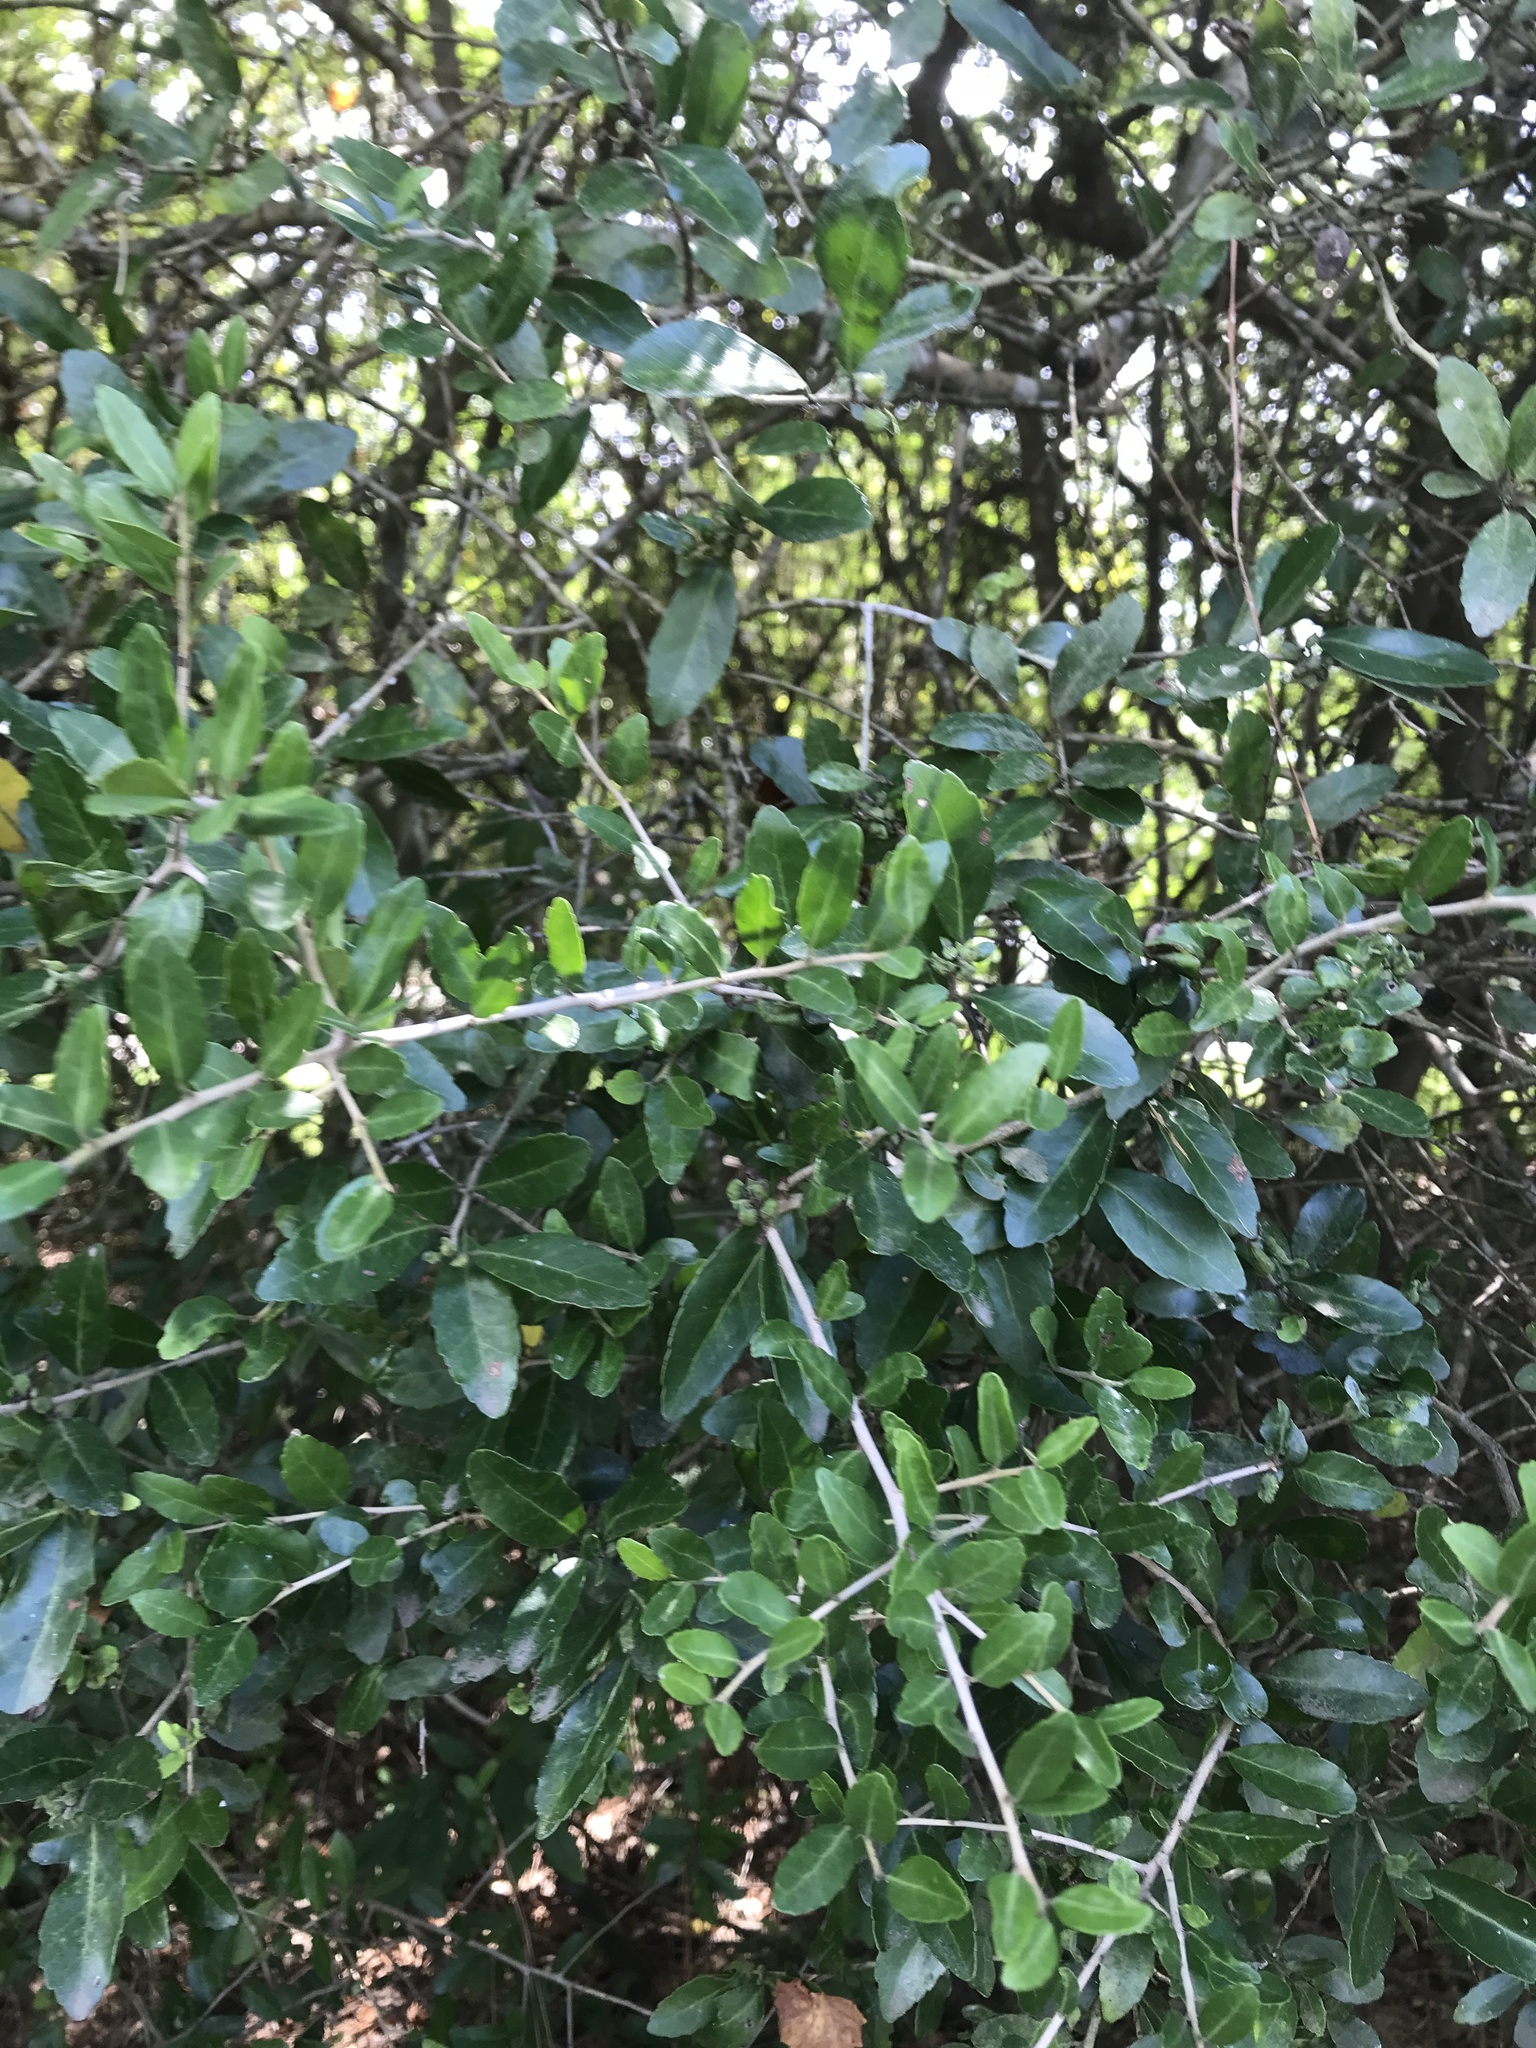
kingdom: Plantae
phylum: Tracheophyta
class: Magnoliopsida
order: Aquifoliales
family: Aquifoliaceae
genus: Ilex
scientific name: Ilex vomitoria
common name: Yaupon holly
